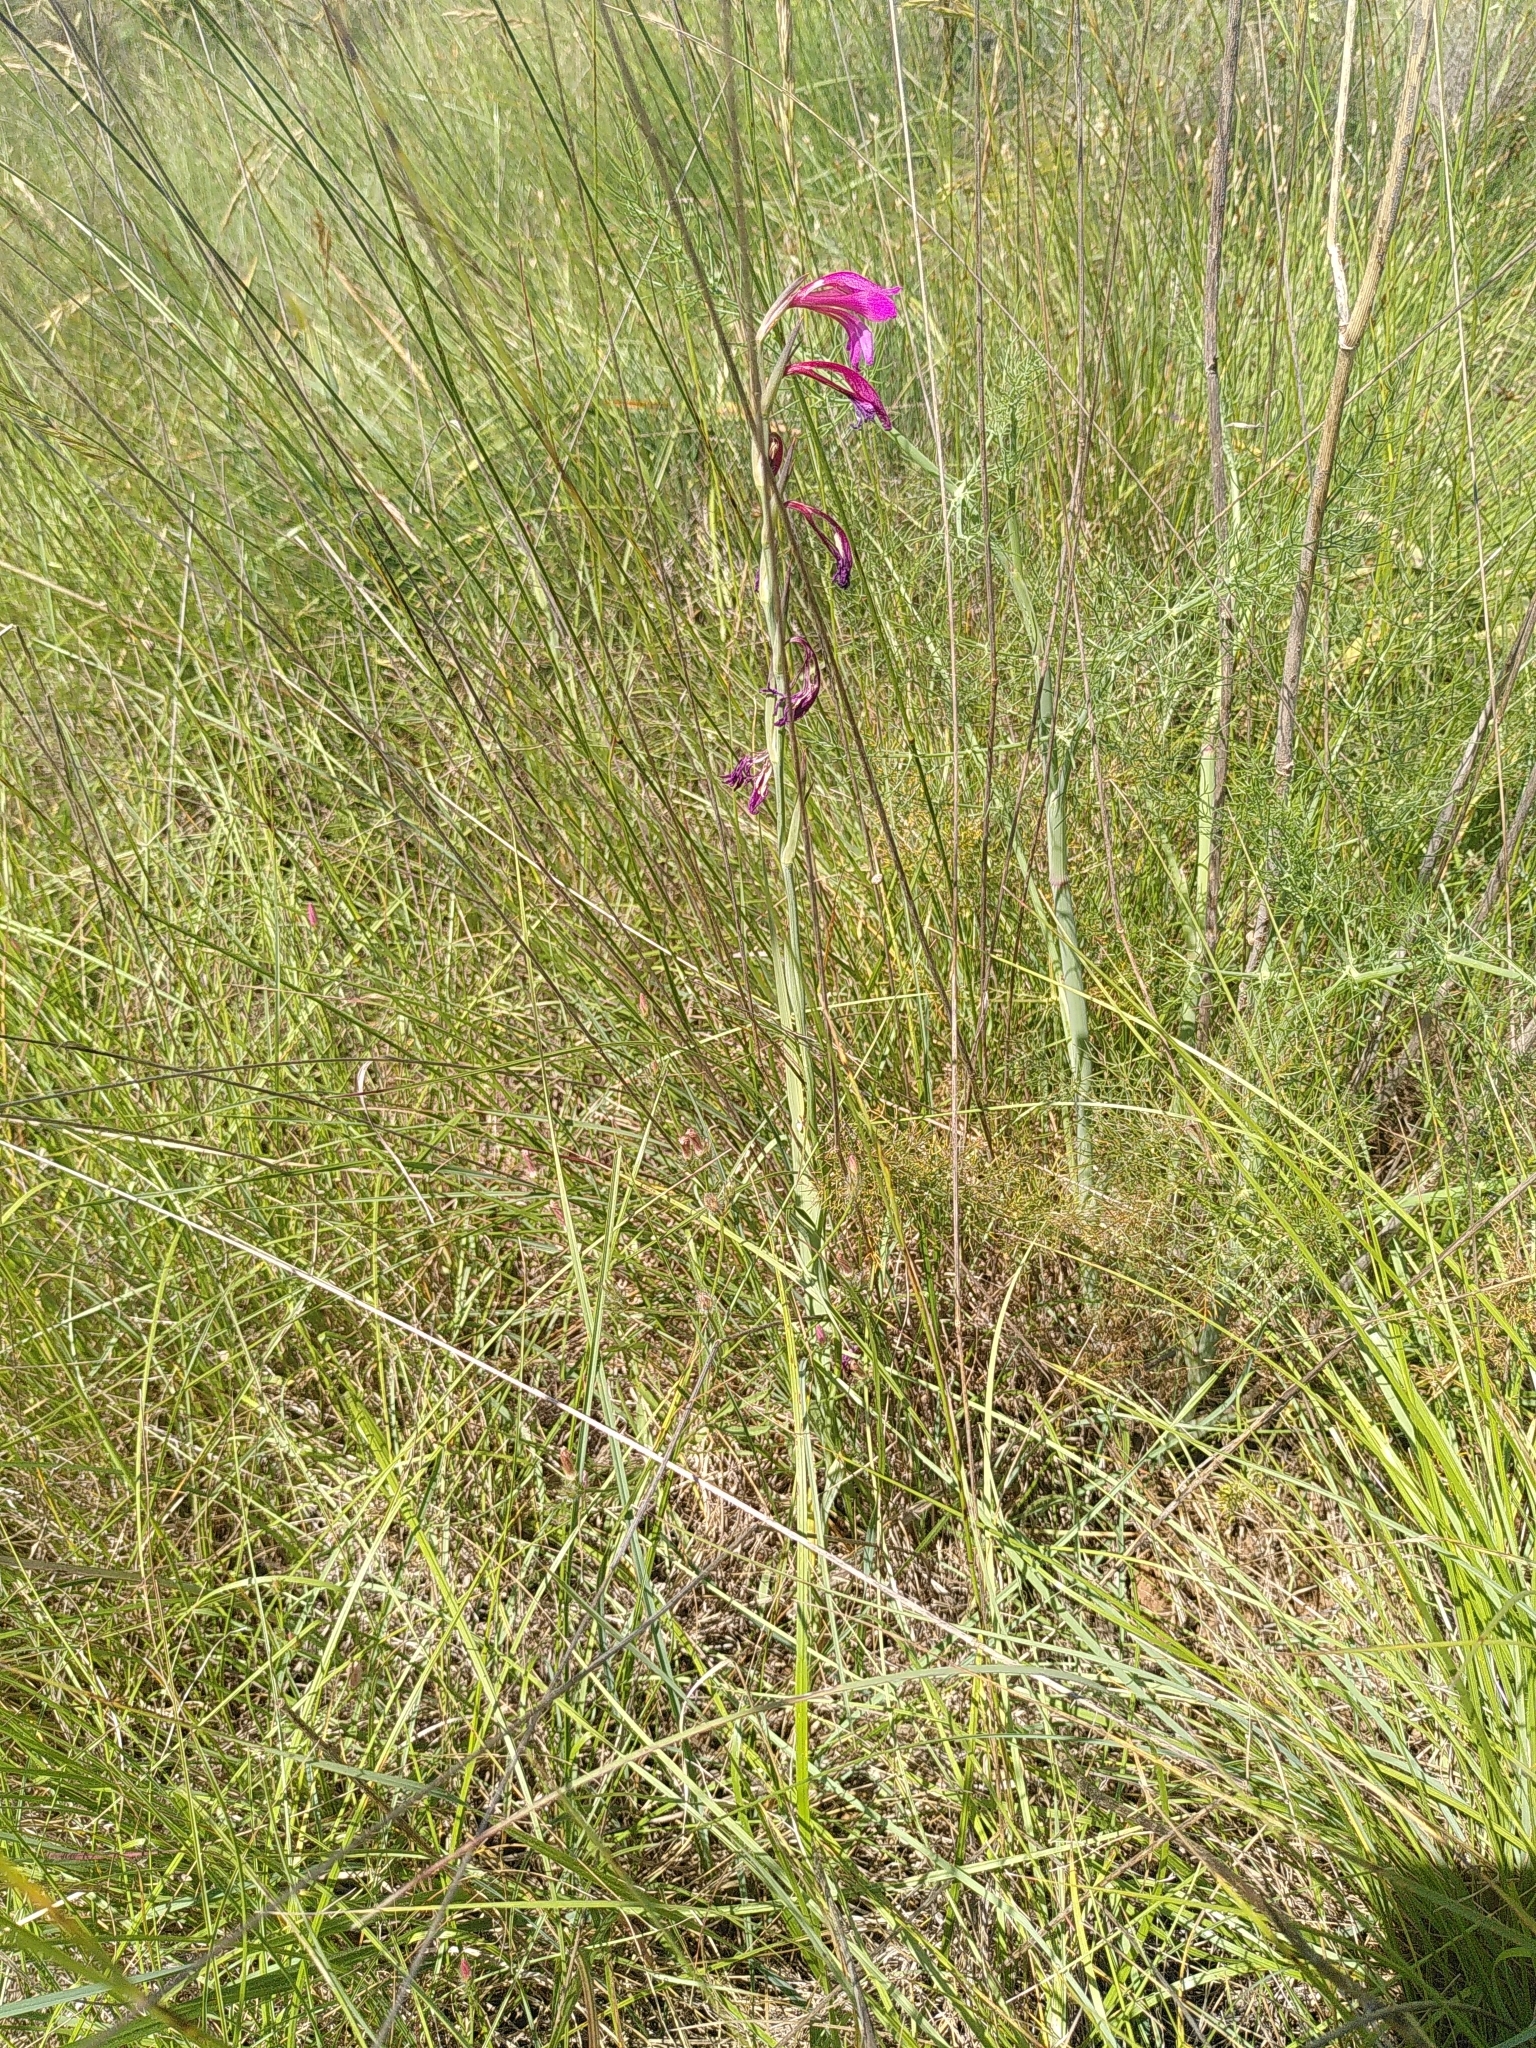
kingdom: Plantae
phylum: Tracheophyta
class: Liliopsida
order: Asparagales
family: Iridaceae
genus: Gladiolus
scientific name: Gladiolus dubius
